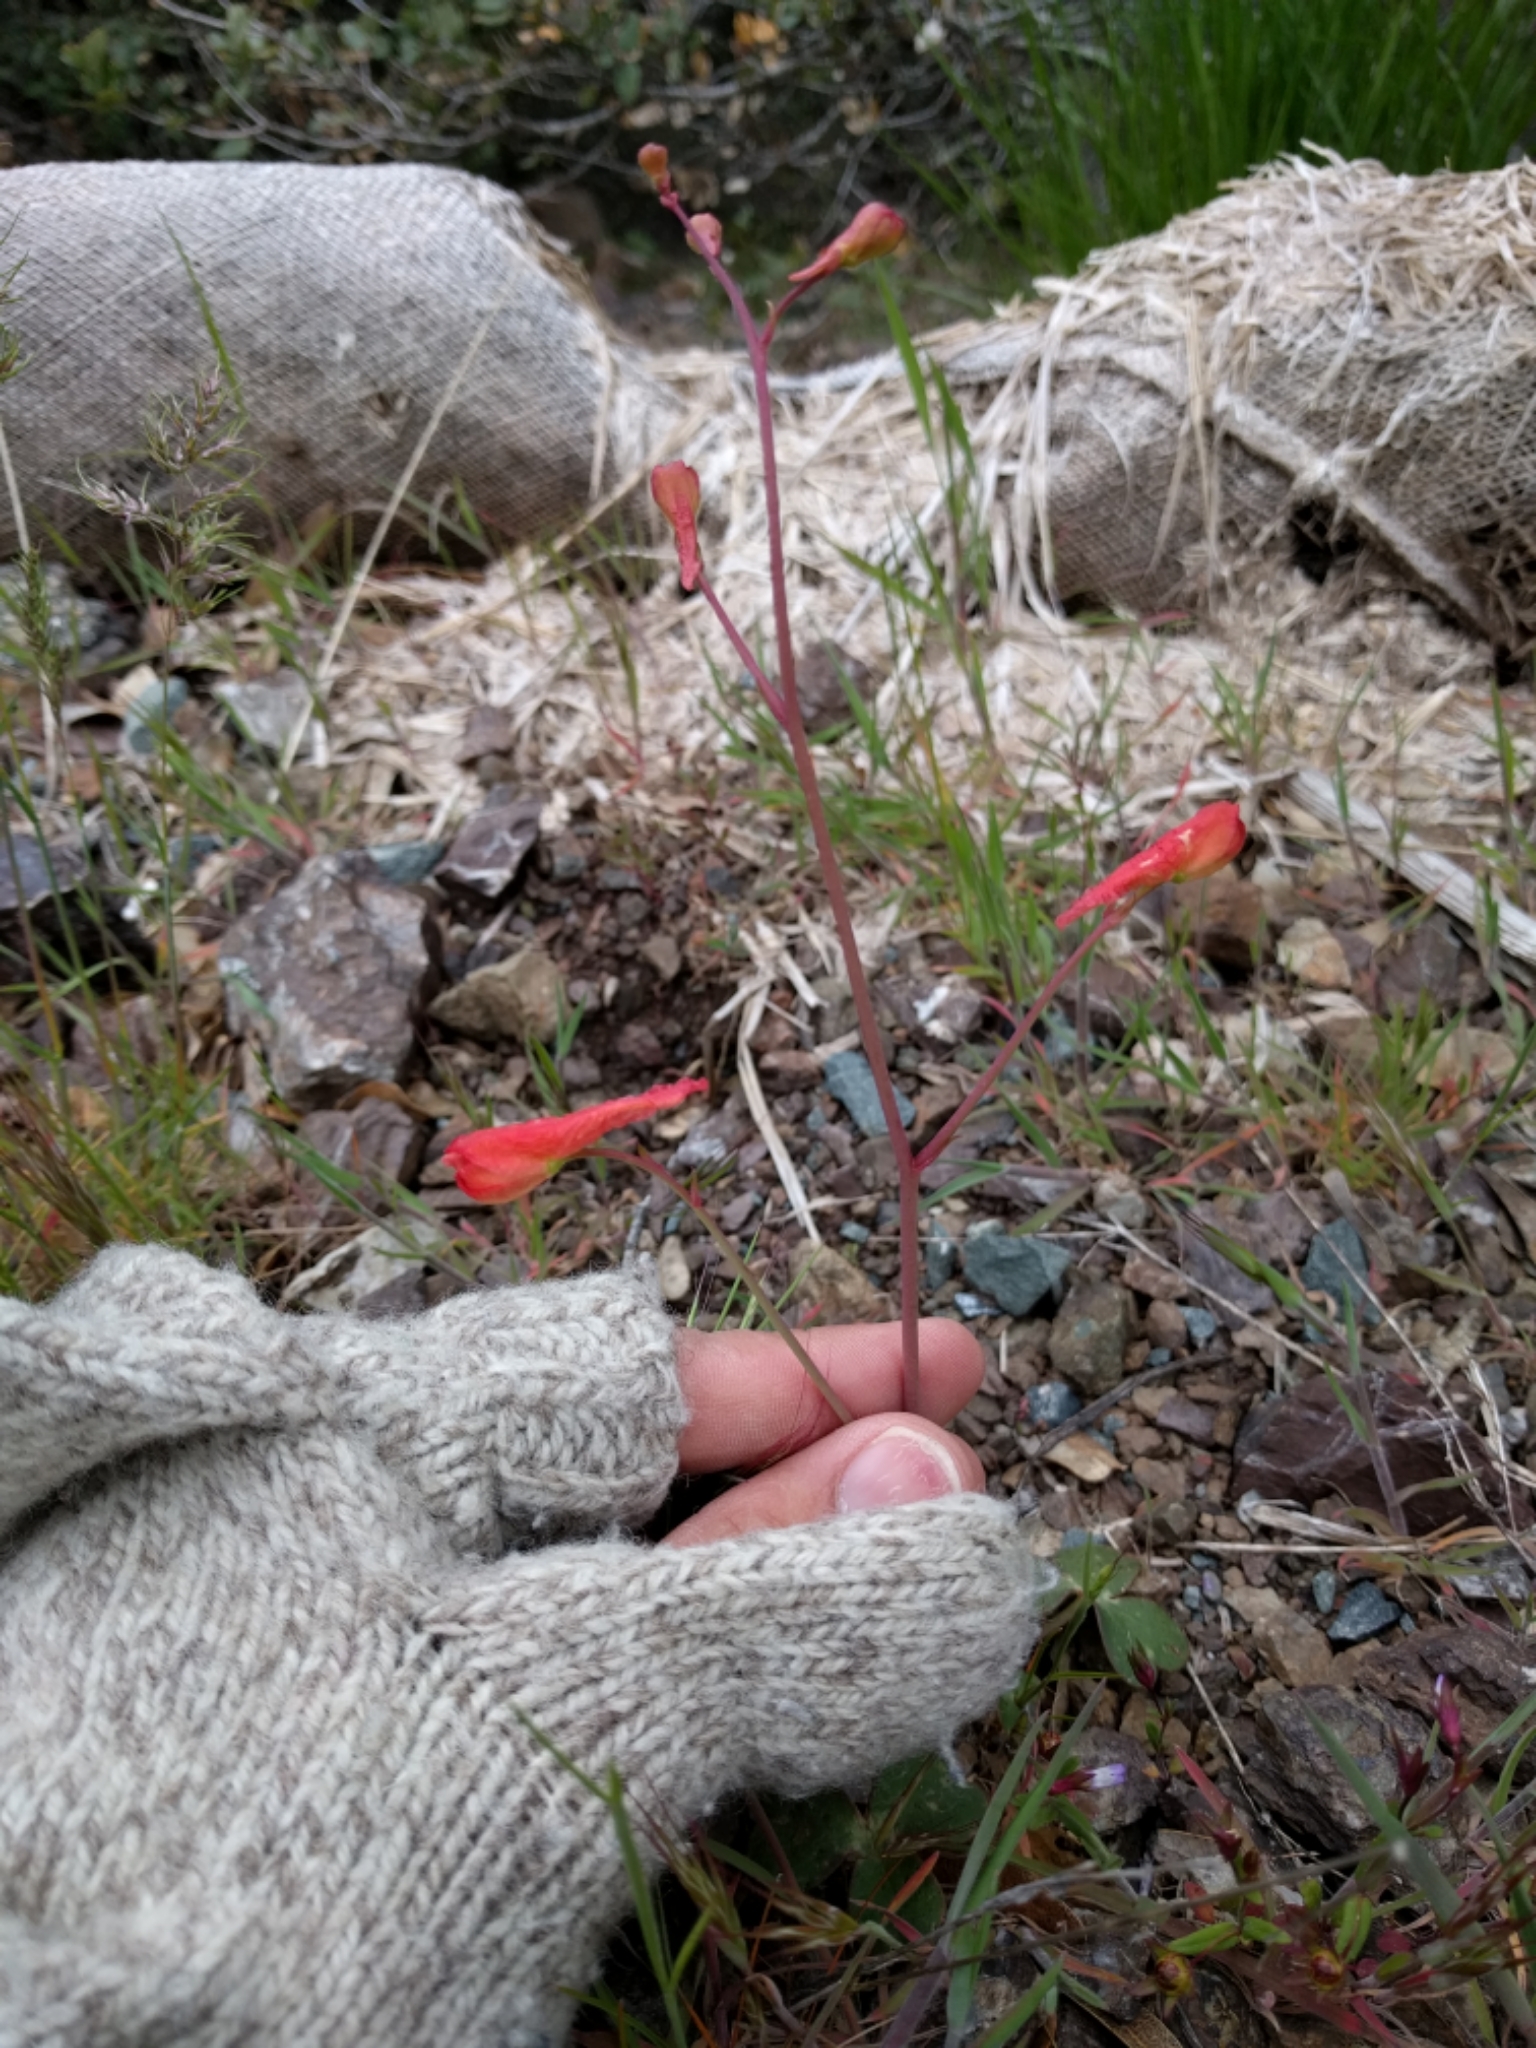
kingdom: Plantae
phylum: Tracheophyta
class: Magnoliopsida
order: Ranunculales
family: Ranunculaceae
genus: Delphinium
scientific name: Delphinium nudicaule
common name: Red larkspur
